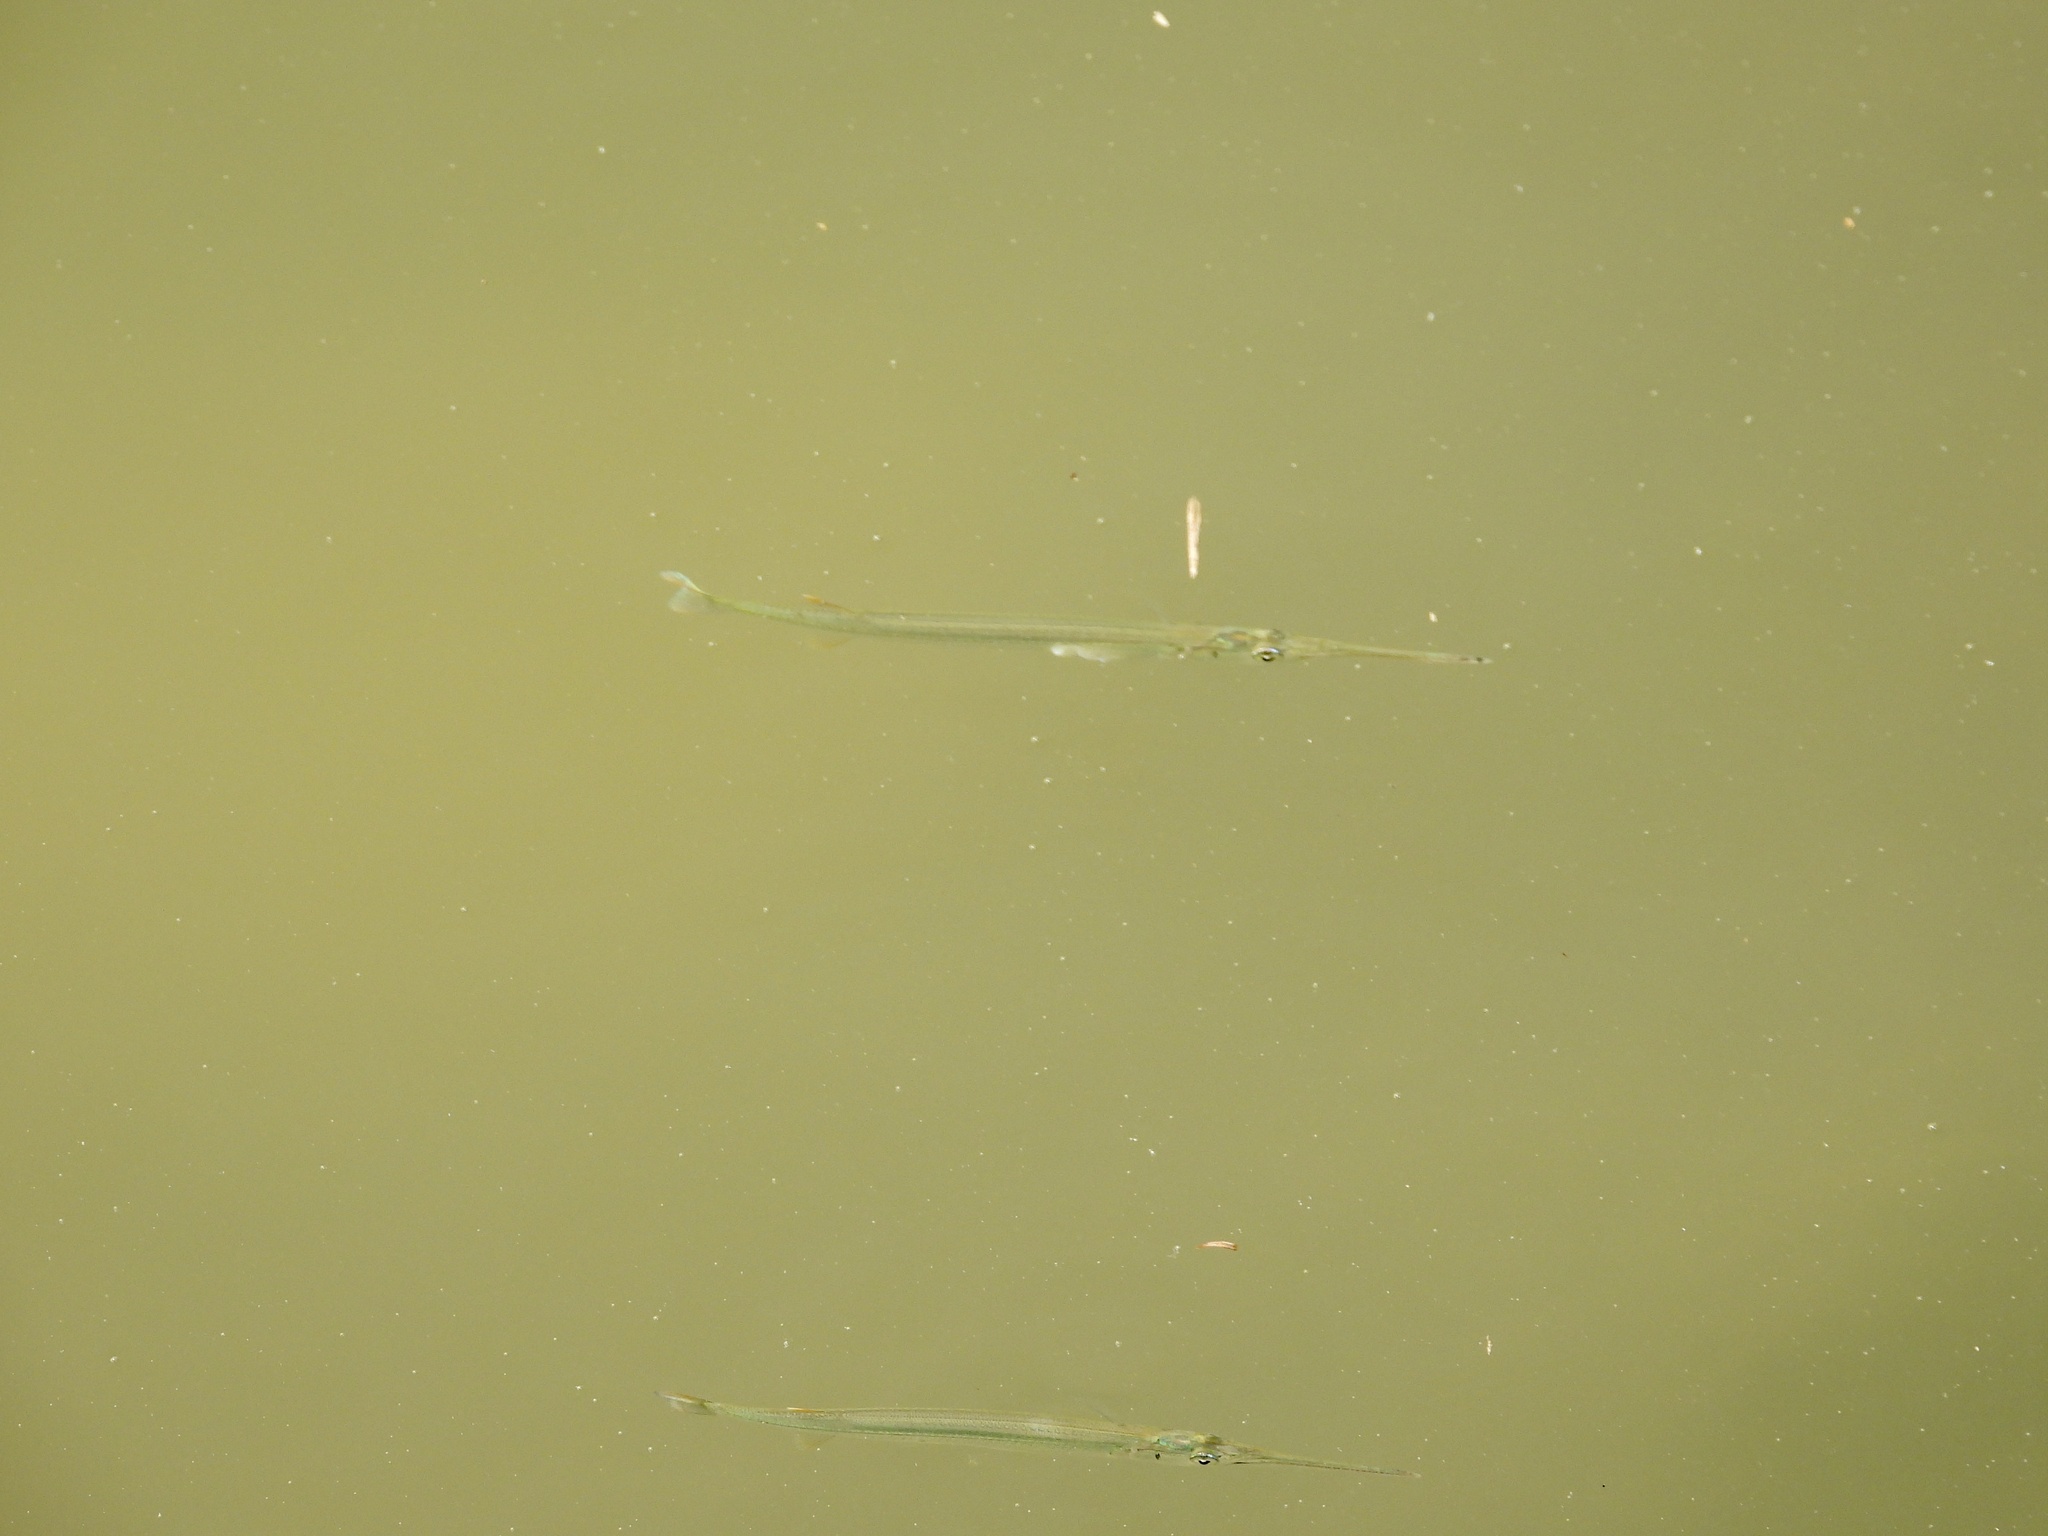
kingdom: Animalia
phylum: Chordata
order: Beloniformes
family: Belonidae
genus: Strongylura
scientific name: Strongylura marina
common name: Atlantic needlefish
